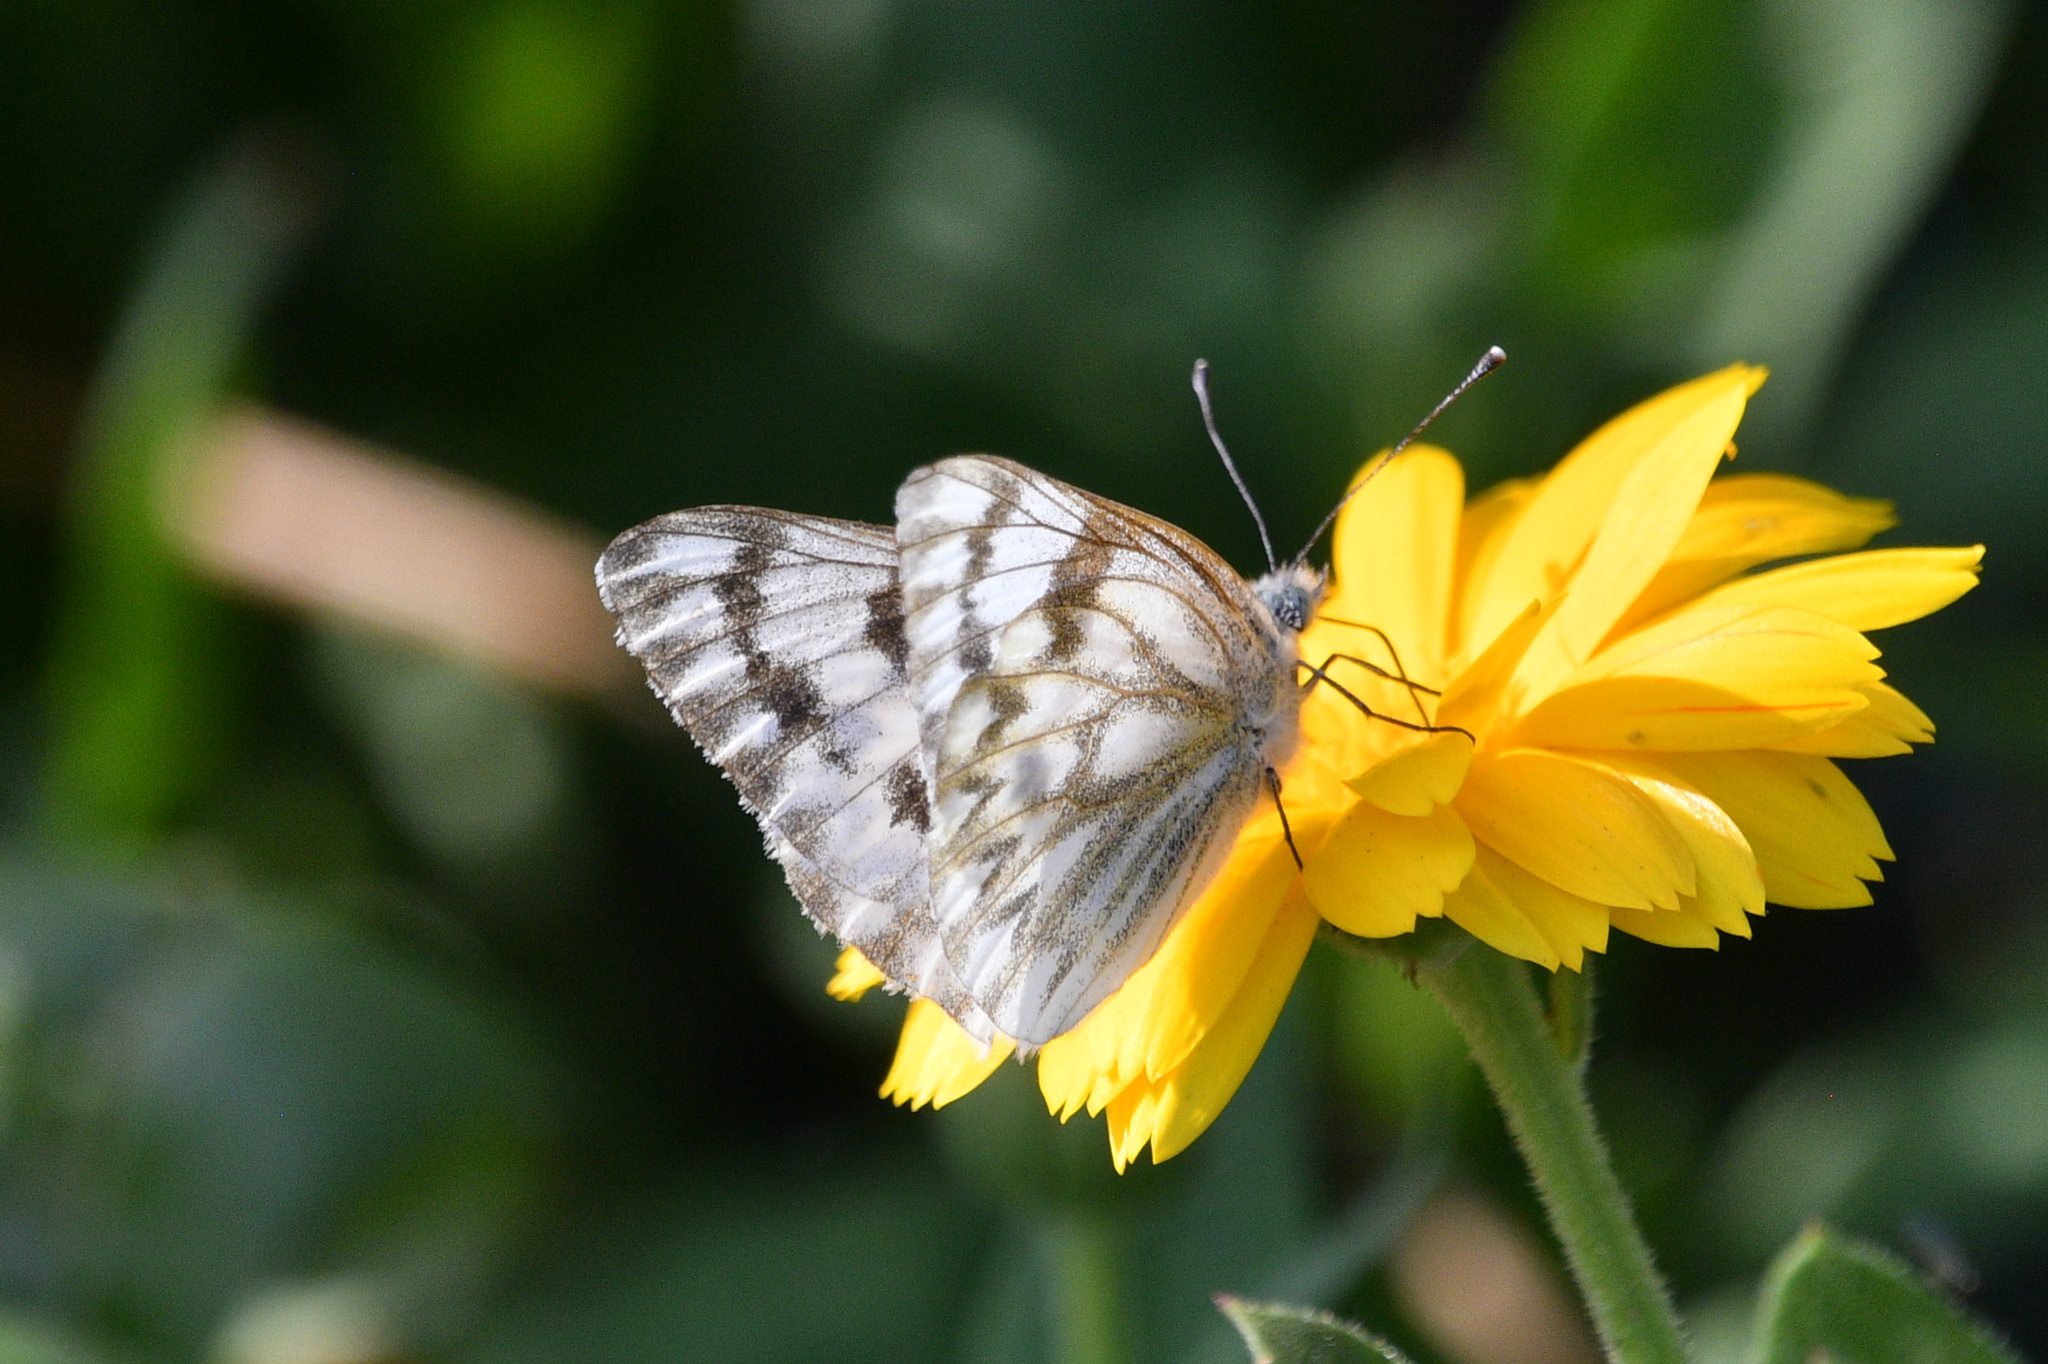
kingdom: Animalia
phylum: Arthropoda
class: Insecta
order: Lepidoptera
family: Pieridae
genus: Pontia
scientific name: Pontia occidentalis
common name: Western white
